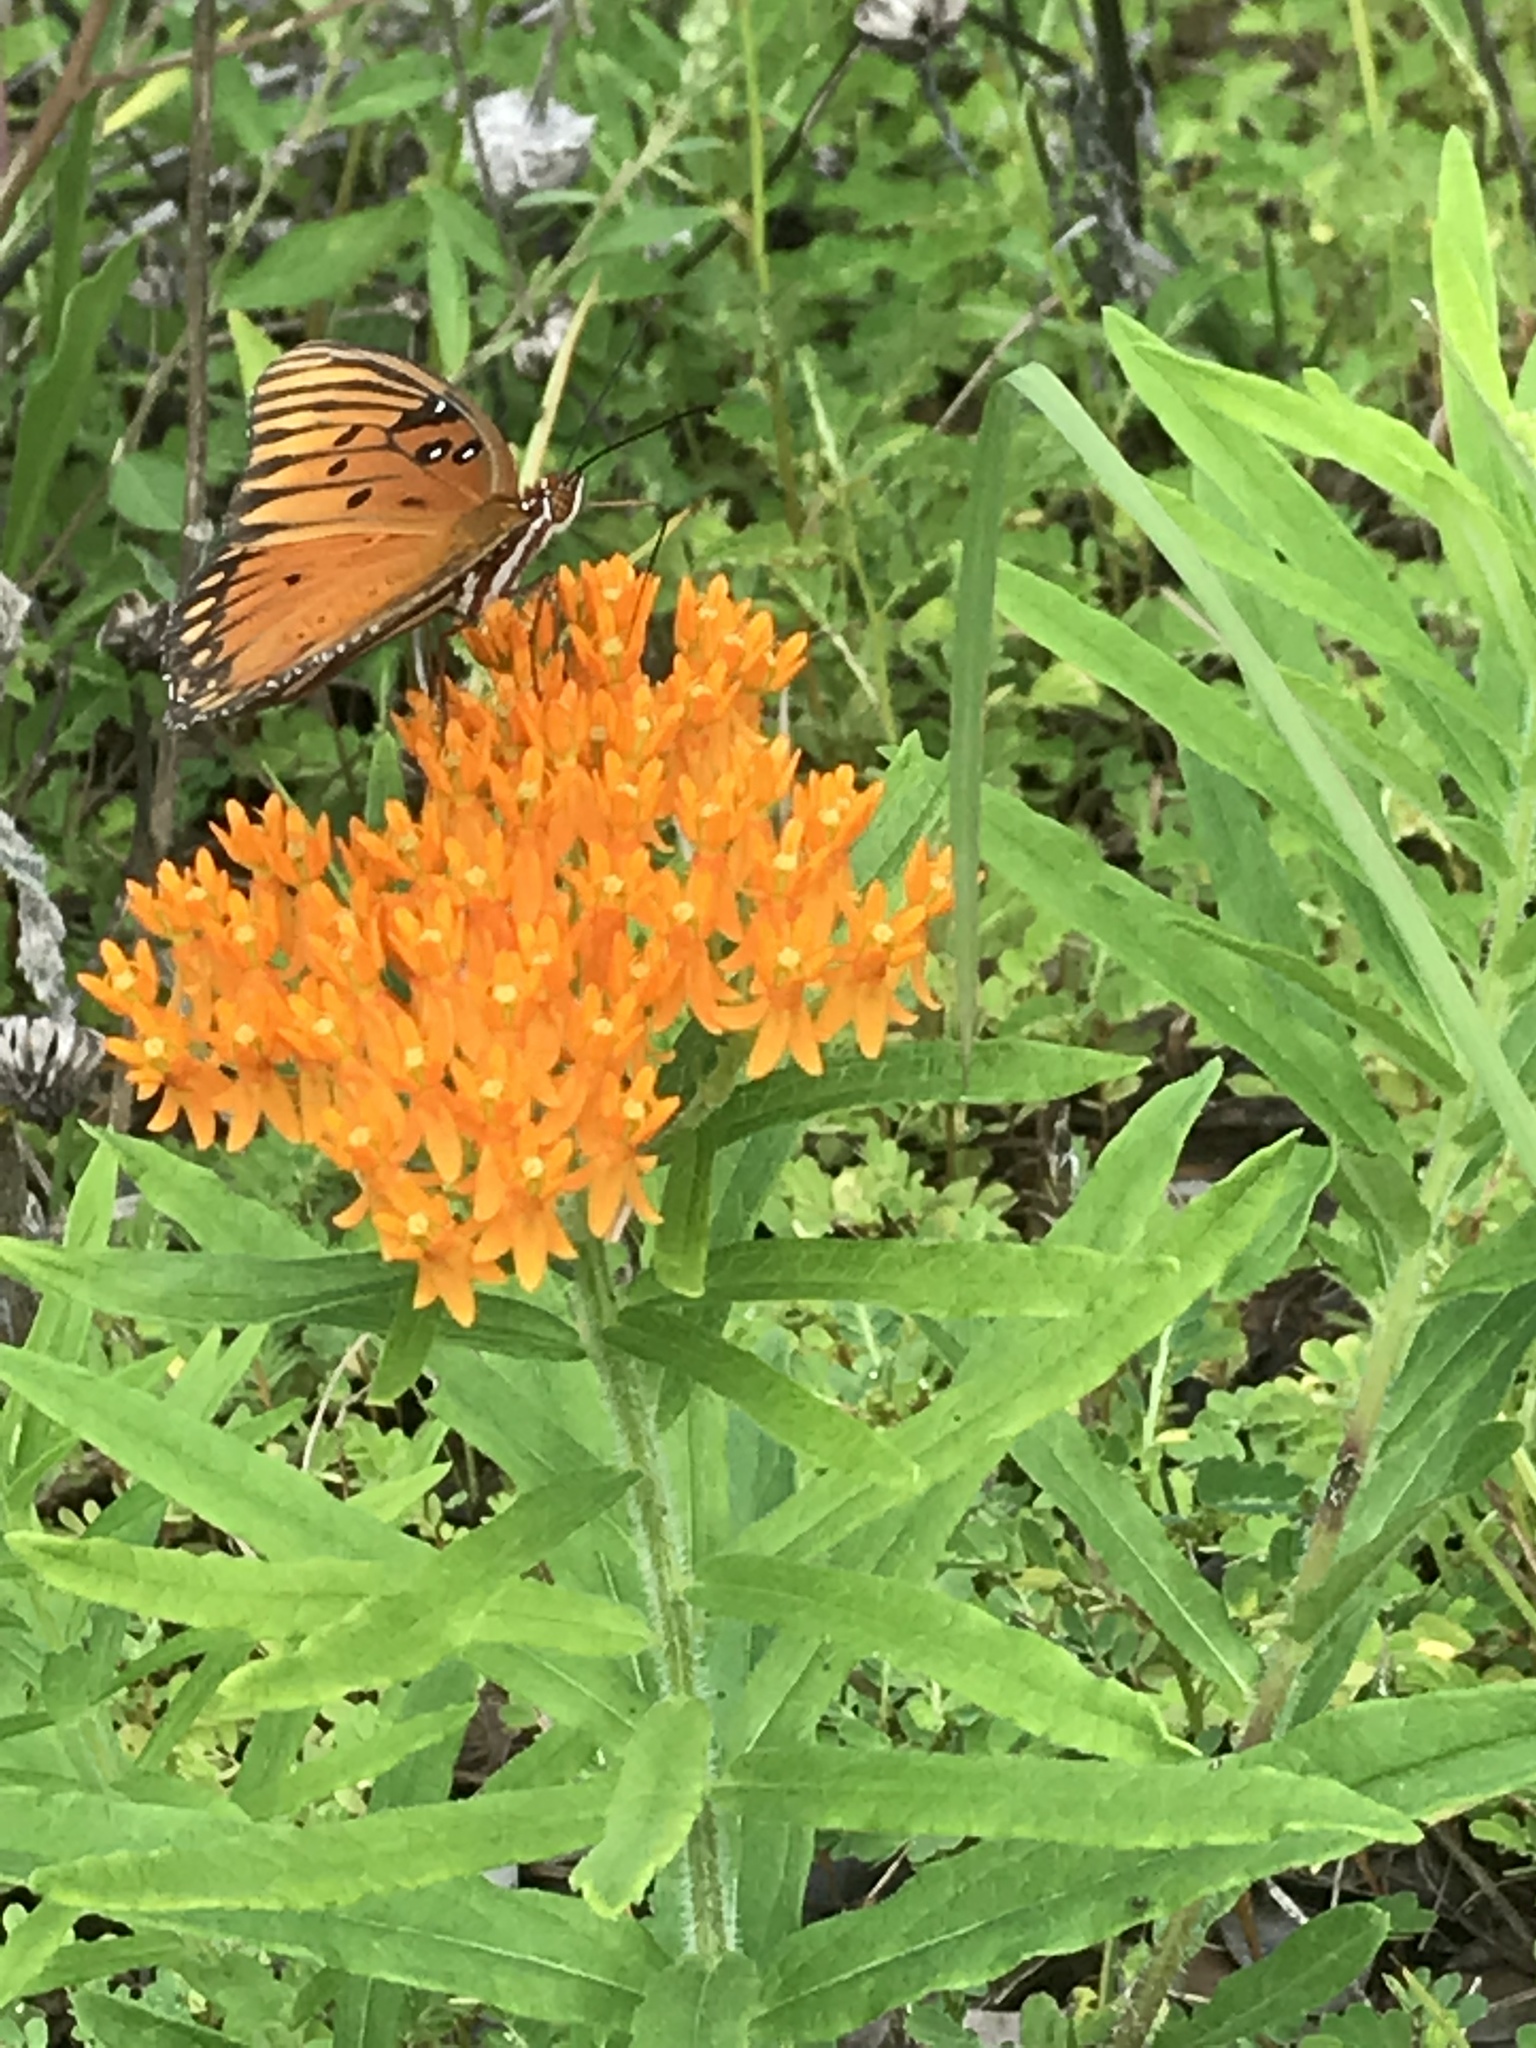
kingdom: Animalia
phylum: Arthropoda
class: Insecta
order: Lepidoptera
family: Nymphalidae
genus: Dione
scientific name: Dione vanillae
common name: Gulf fritillary
